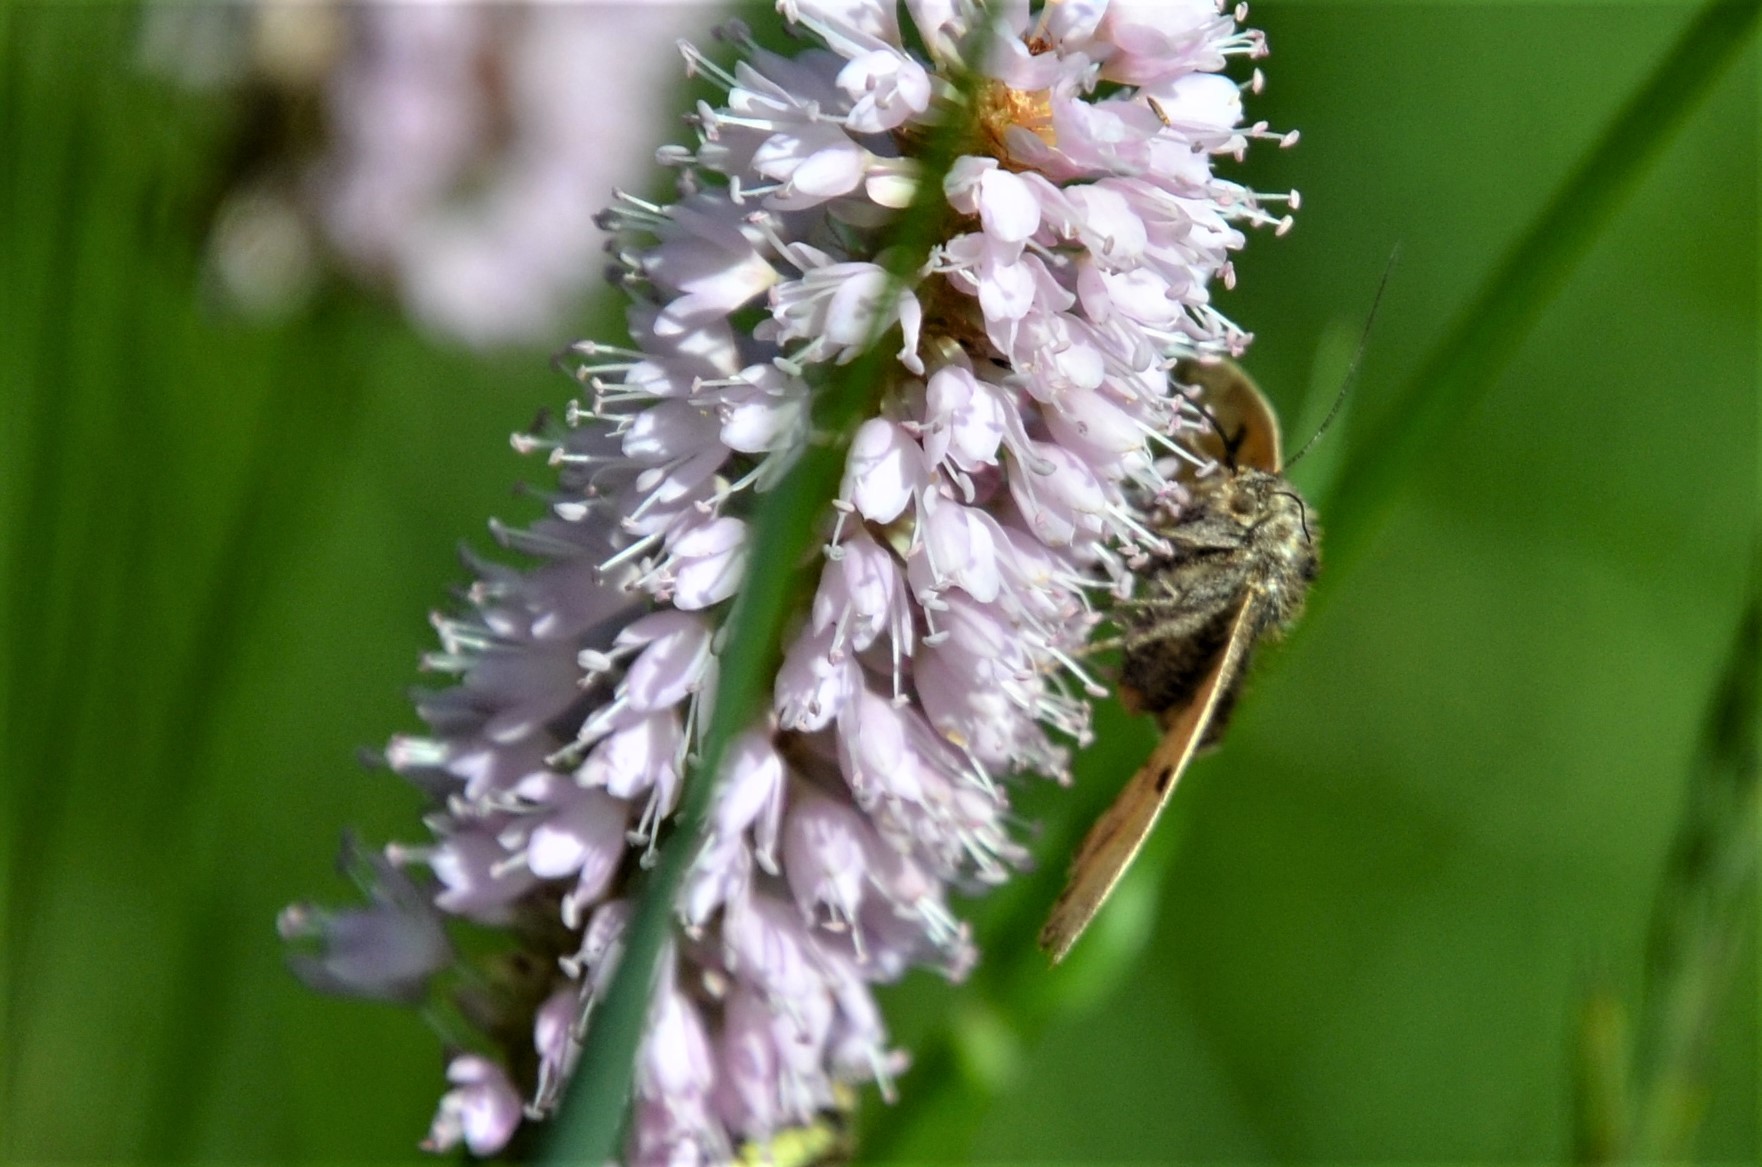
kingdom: Animalia
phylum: Arthropoda
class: Insecta
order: Lepidoptera
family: Erebidae
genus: Euclidia
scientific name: Euclidia glyphica
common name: Burnet companion
